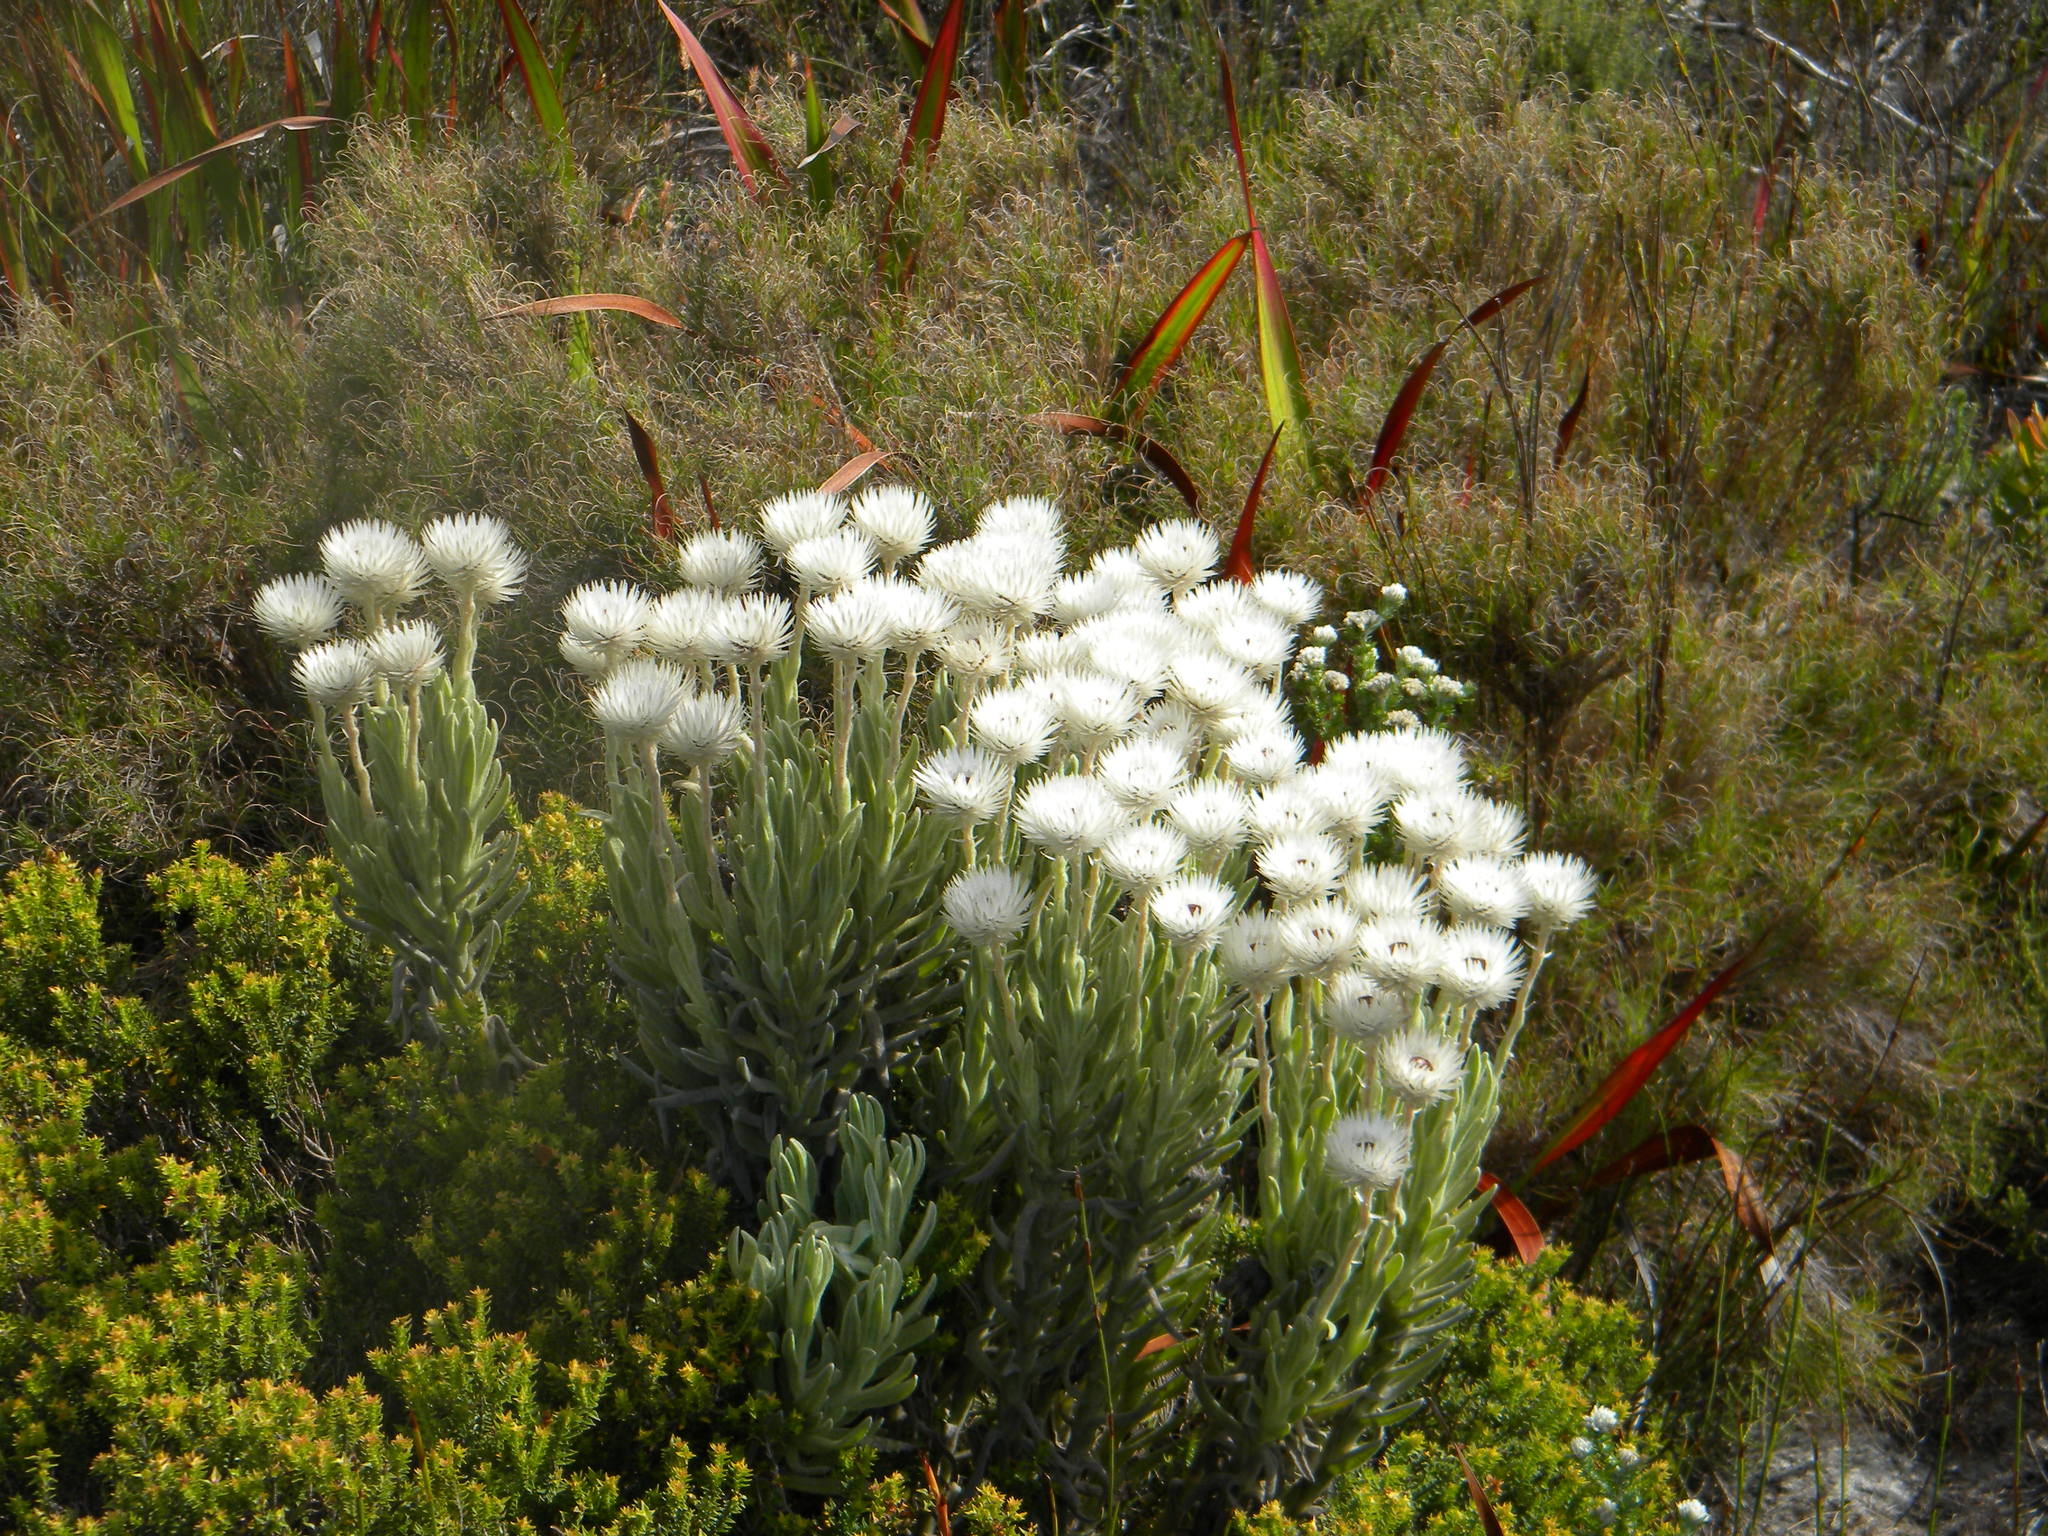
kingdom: Plantae
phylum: Tracheophyta
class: Magnoliopsida
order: Asterales
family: Asteraceae
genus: Syncarpha
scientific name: Syncarpha vestita
